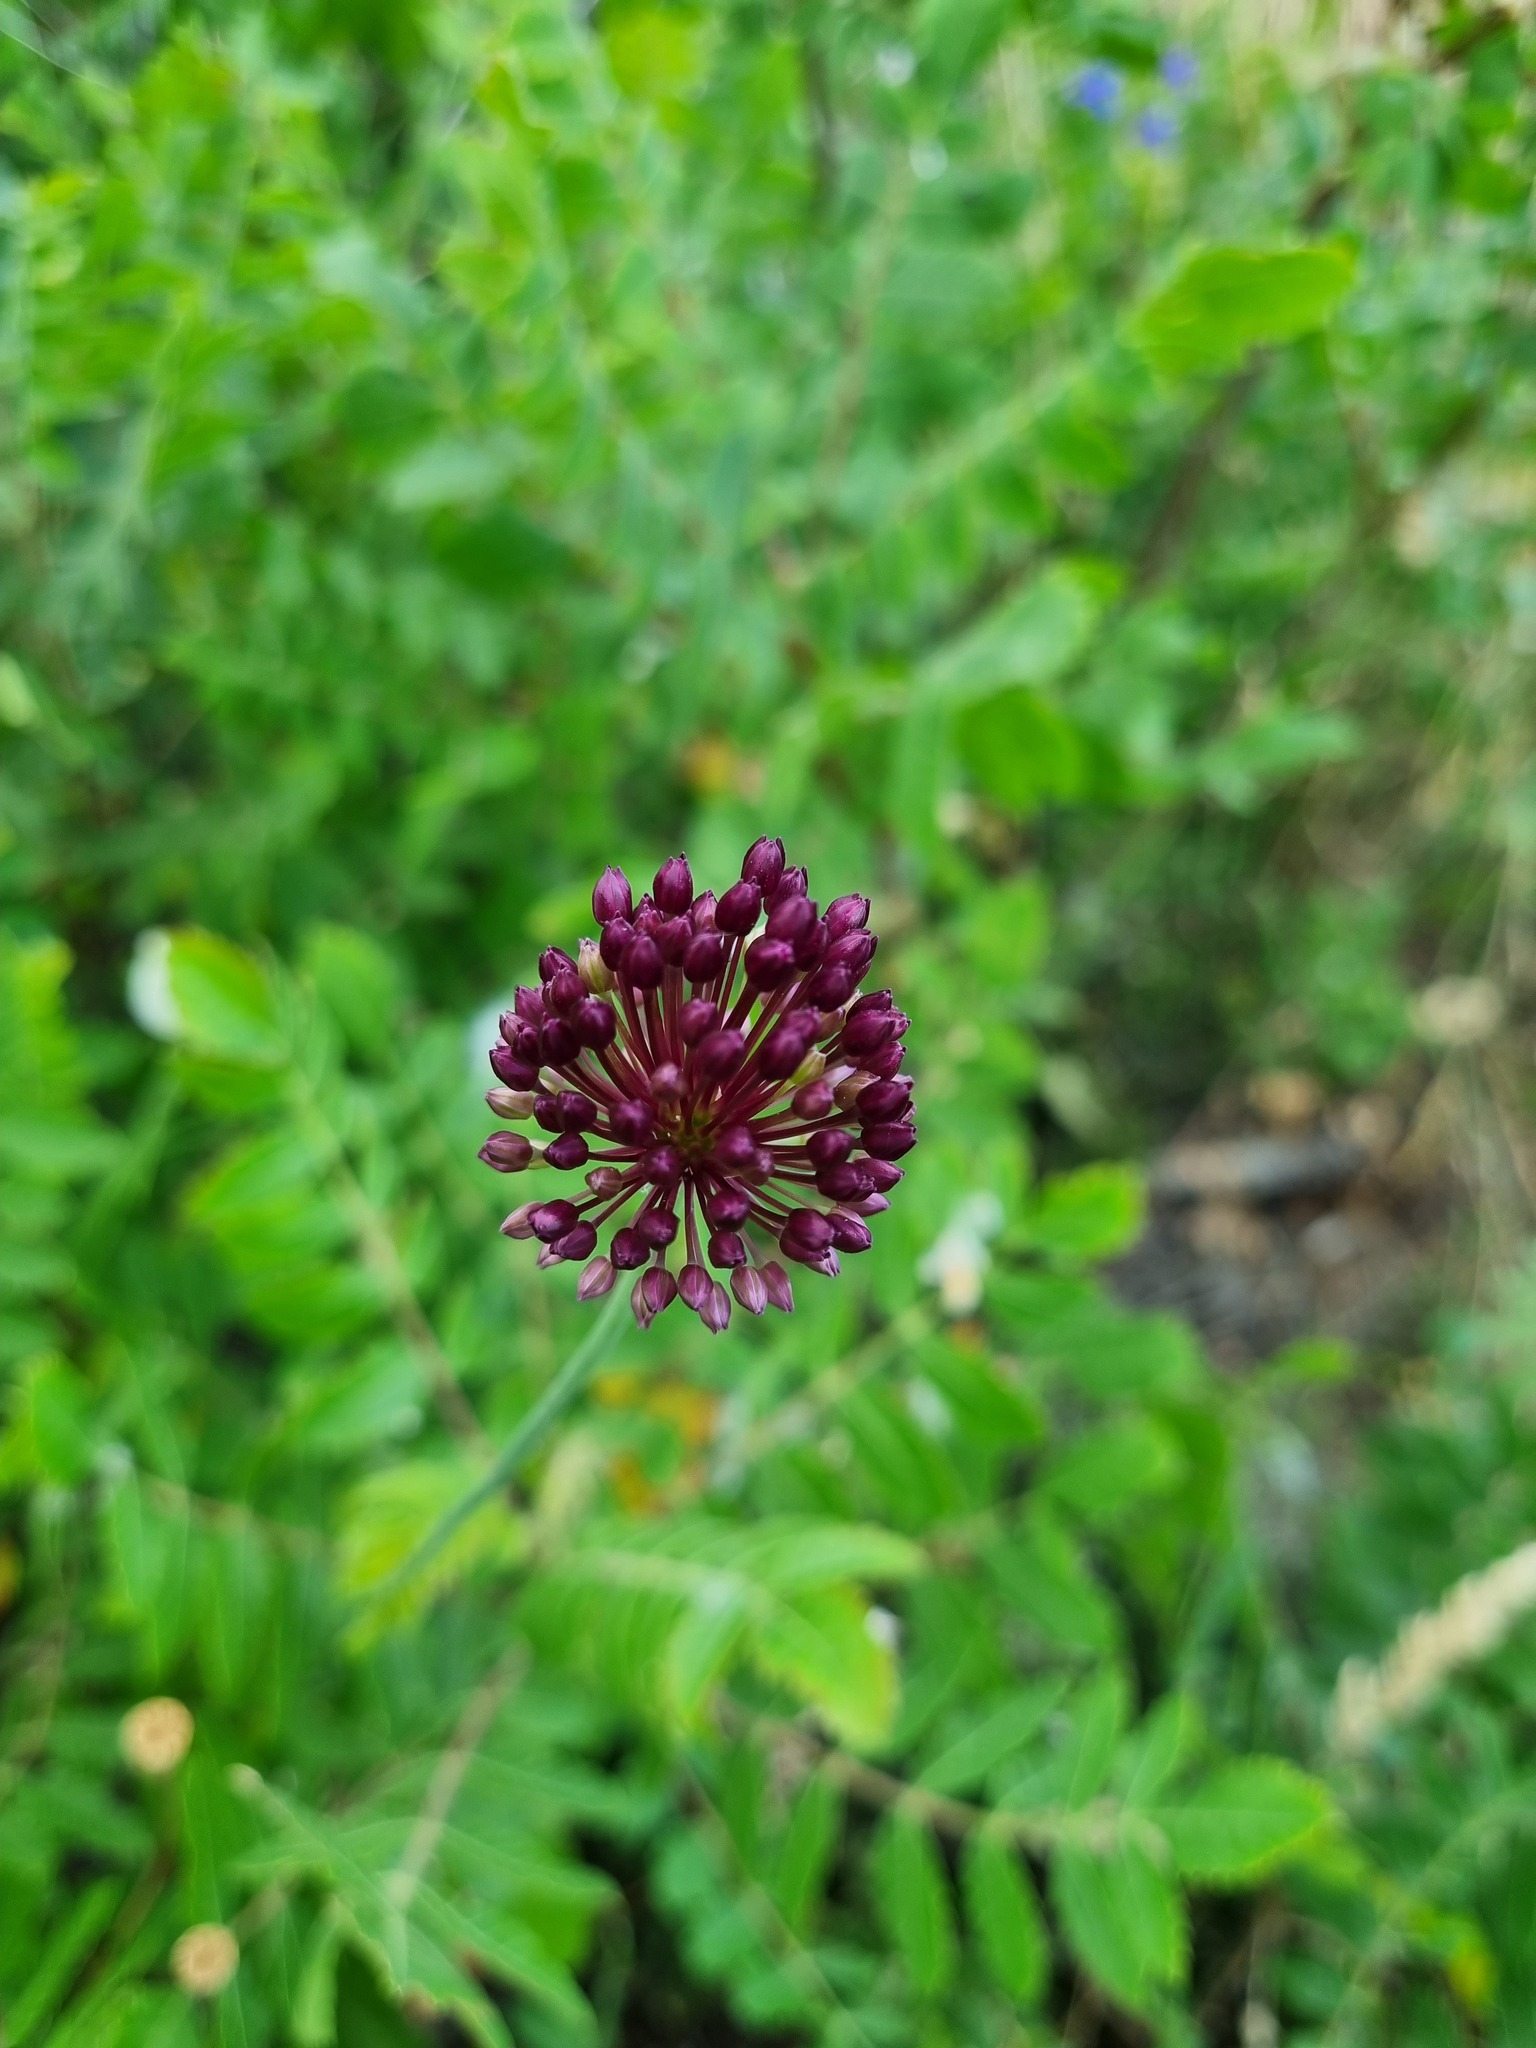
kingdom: Plantae
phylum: Tracheophyta
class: Liliopsida
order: Asparagales
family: Amaryllidaceae
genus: Allium
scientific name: Allium rotundum
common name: Sand leek
